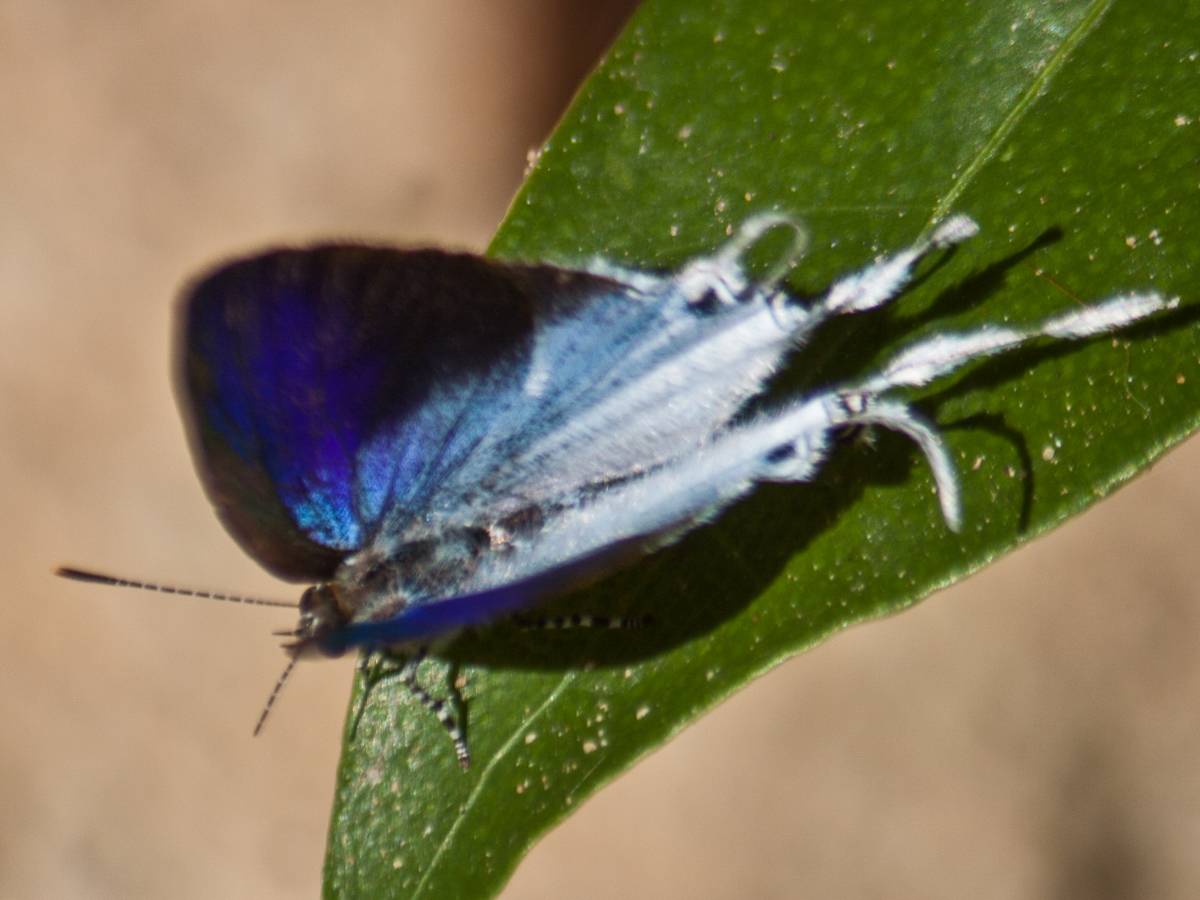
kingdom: Animalia
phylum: Arthropoda
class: Insecta
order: Lepidoptera
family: Lycaenidae
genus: Zeltus
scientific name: Zeltus amasa
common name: Fluffy tit
